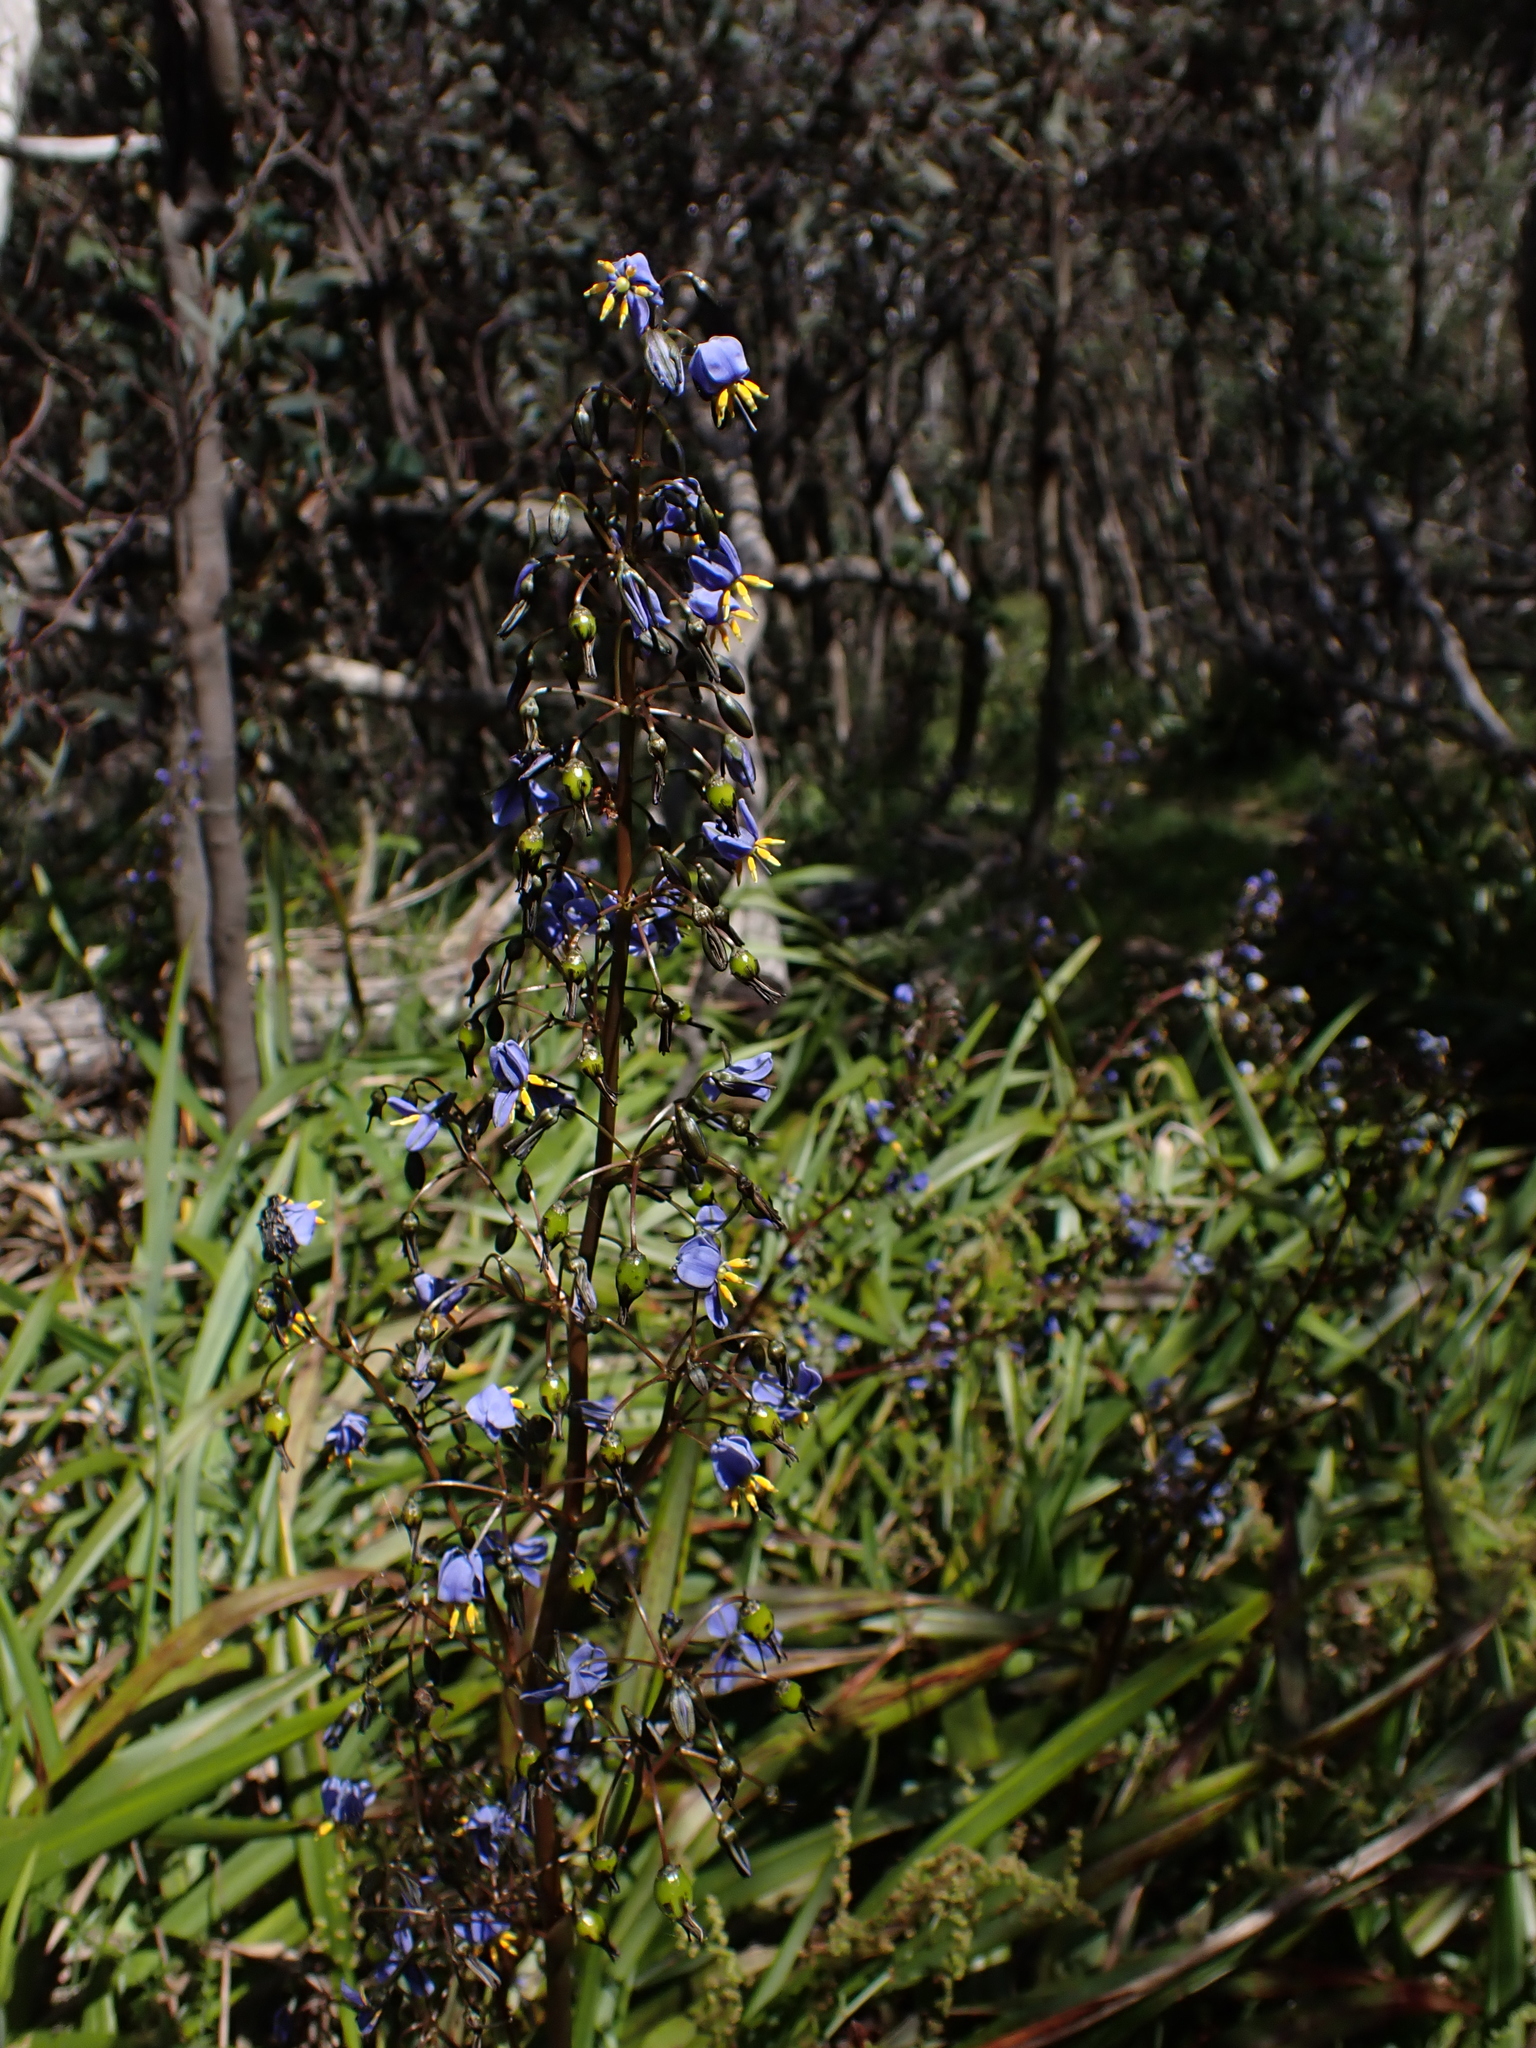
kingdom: Plantae
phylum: Tracheophyta
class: Liliopsida
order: Asparagales
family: Asphodelaceae
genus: Dianella
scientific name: Dianella tasmanica
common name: Tasman flax-lily
